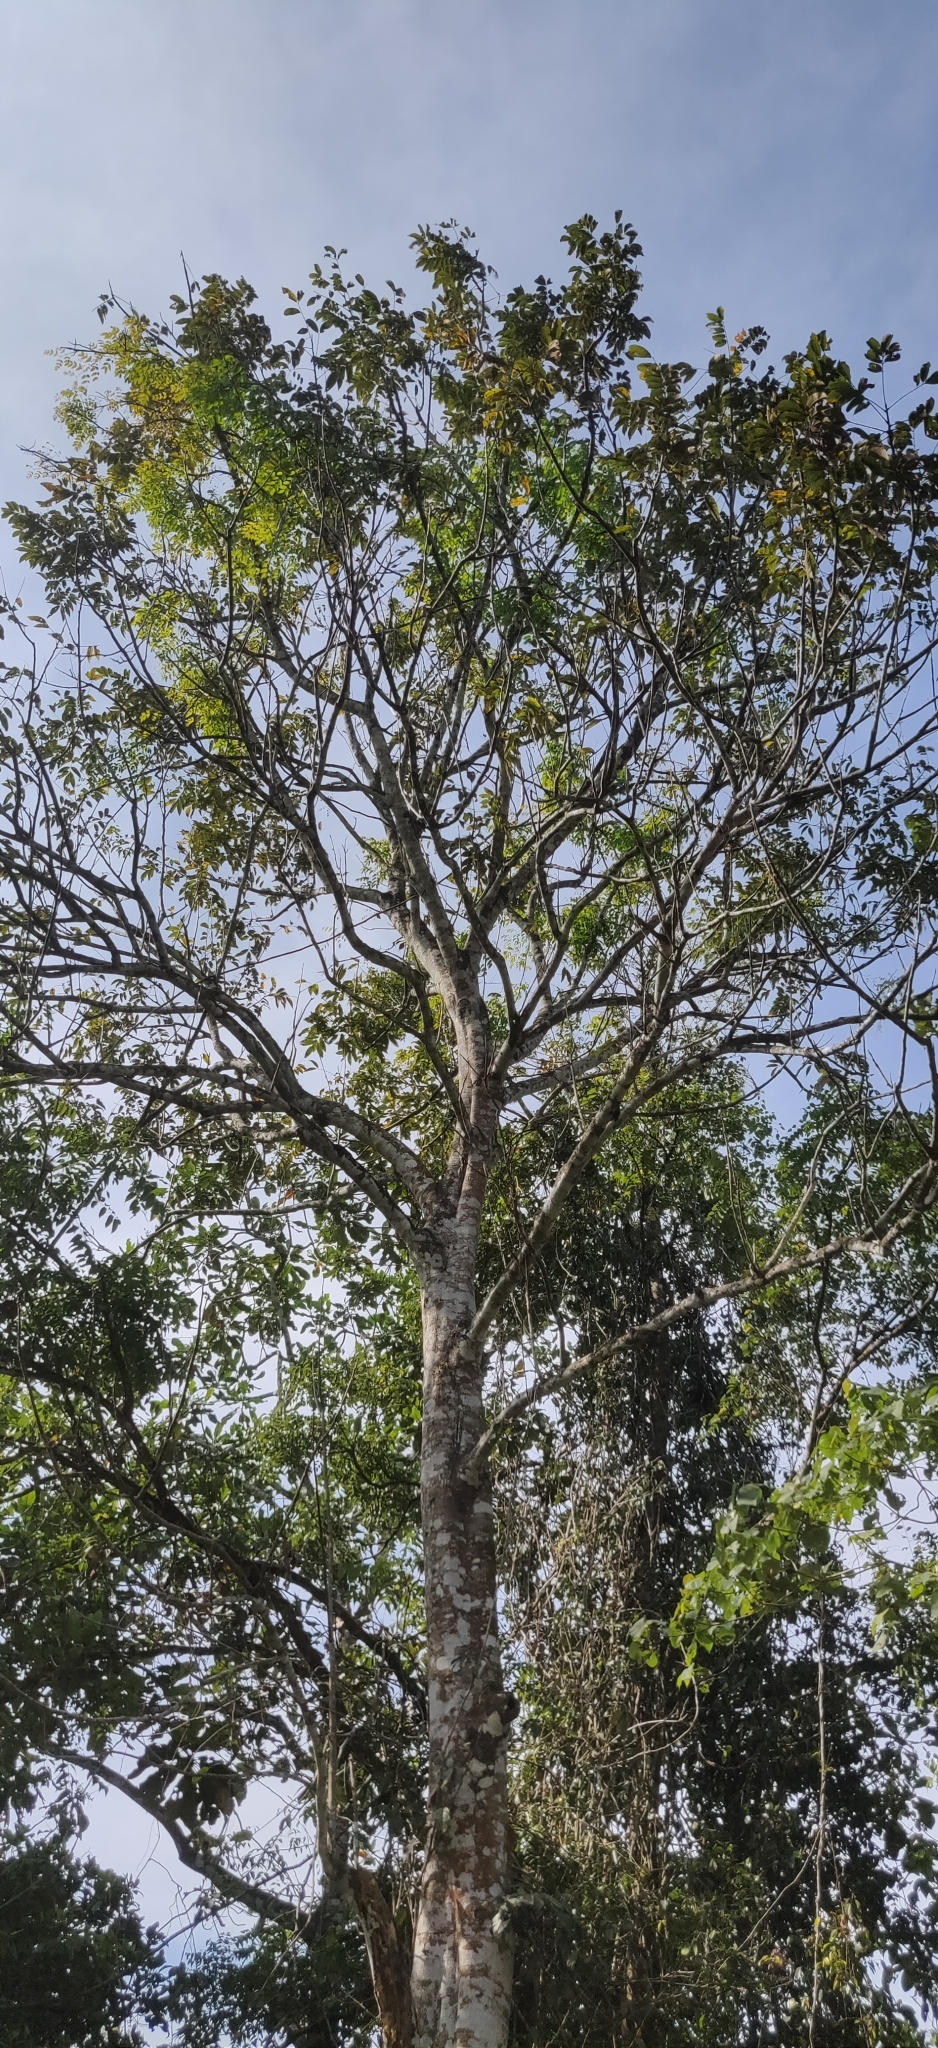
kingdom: Plantae
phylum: Tracheophyta
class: Magnoliopsida
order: Proteales
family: Sabiaceae
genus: Meliosma
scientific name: Meliosma pinnata
